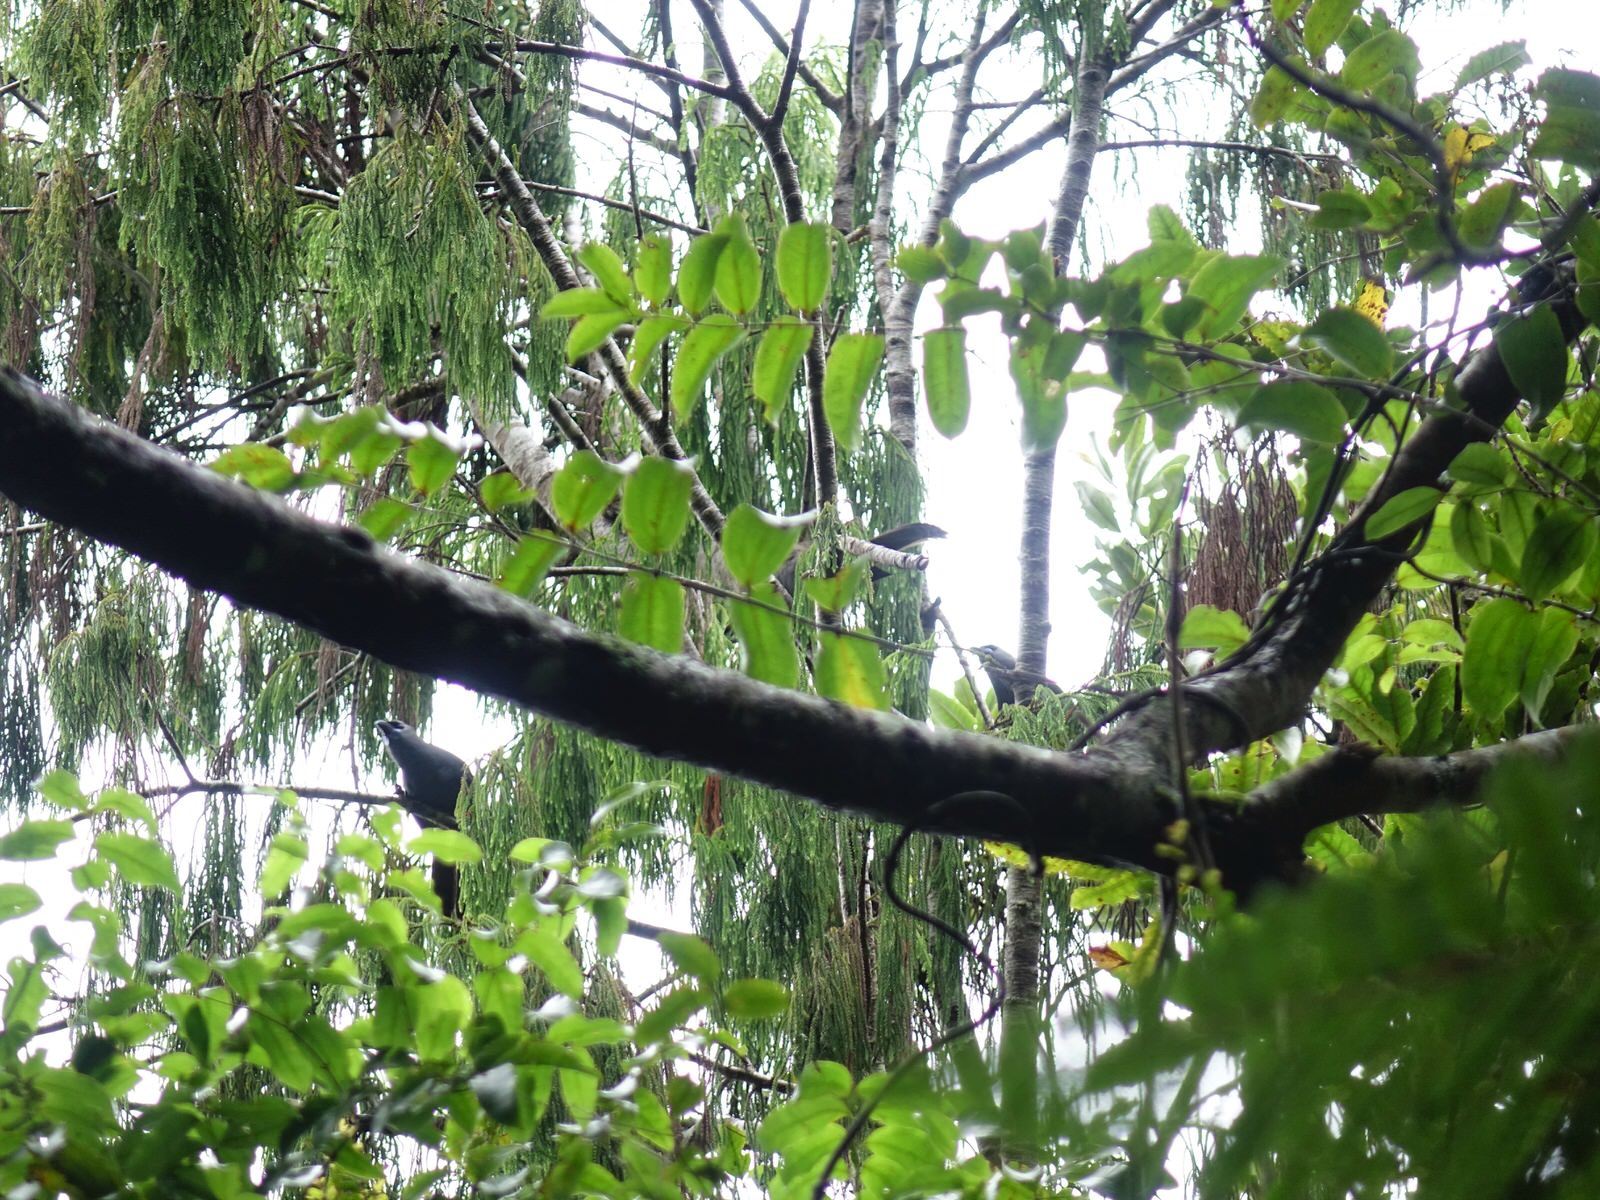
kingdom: Animalia
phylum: Chordata
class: Aves
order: Passeriformes
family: Callaeatidae
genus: Callaeas
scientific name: Callaeas cinereus
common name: South island kokako
